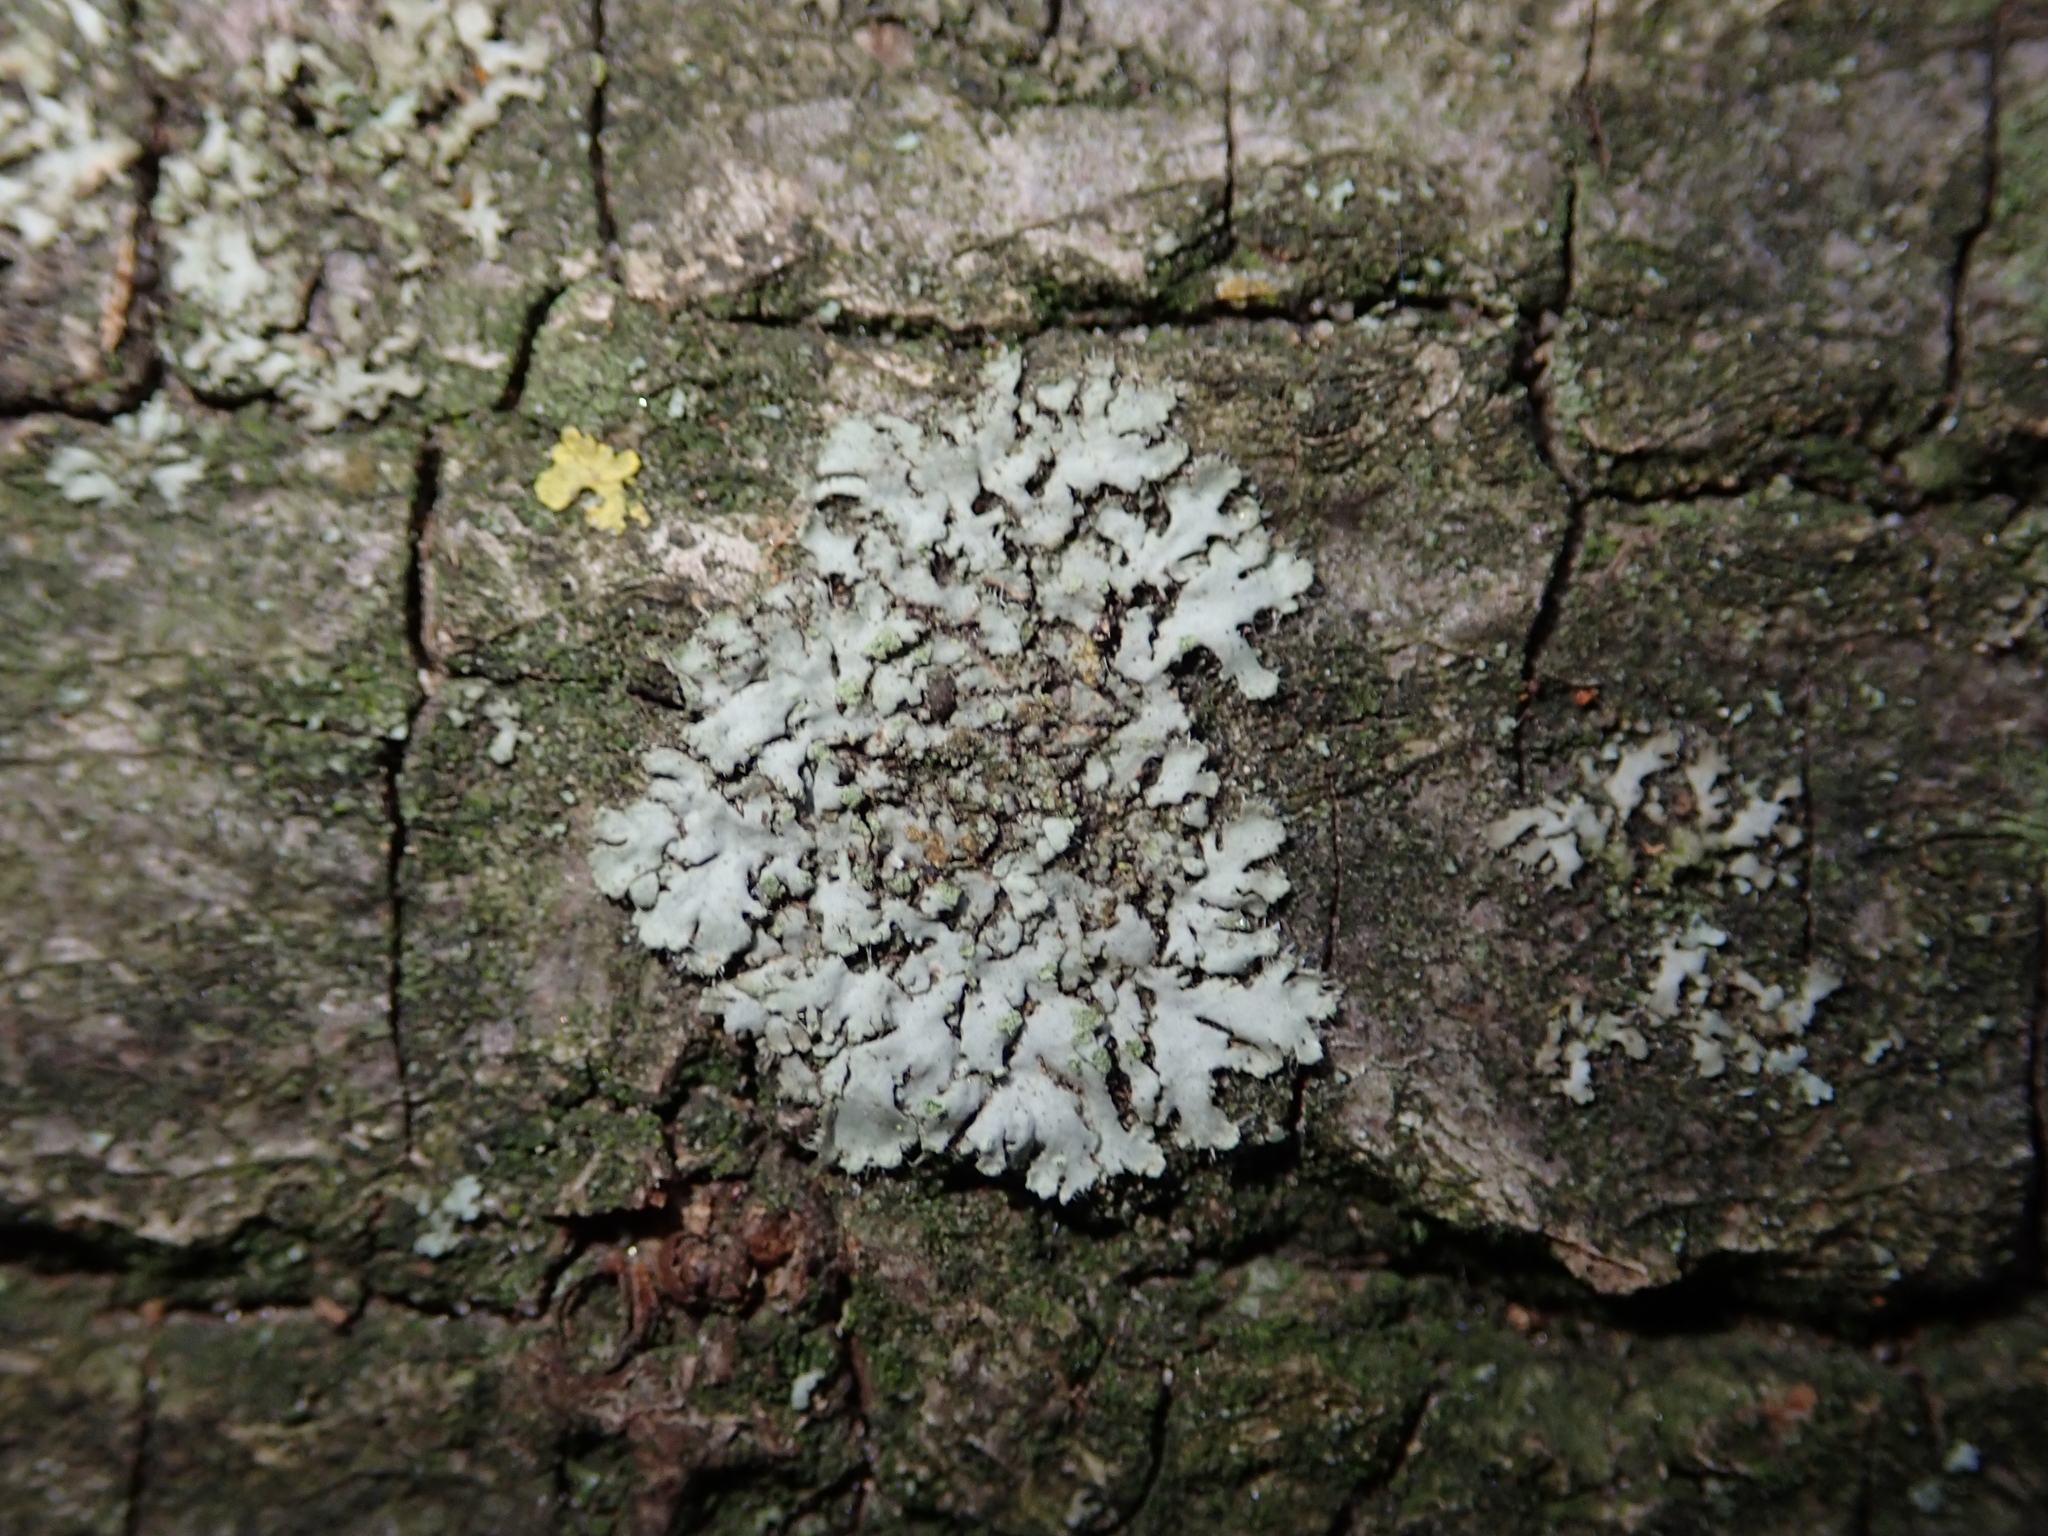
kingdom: Fungi
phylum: Ascomycota
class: Lecanoromycetes
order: Caliciales
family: Physciaceae
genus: Phaeophyscia
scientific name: Phaeophyscia orbicularis
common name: Mealy shadow lichen
